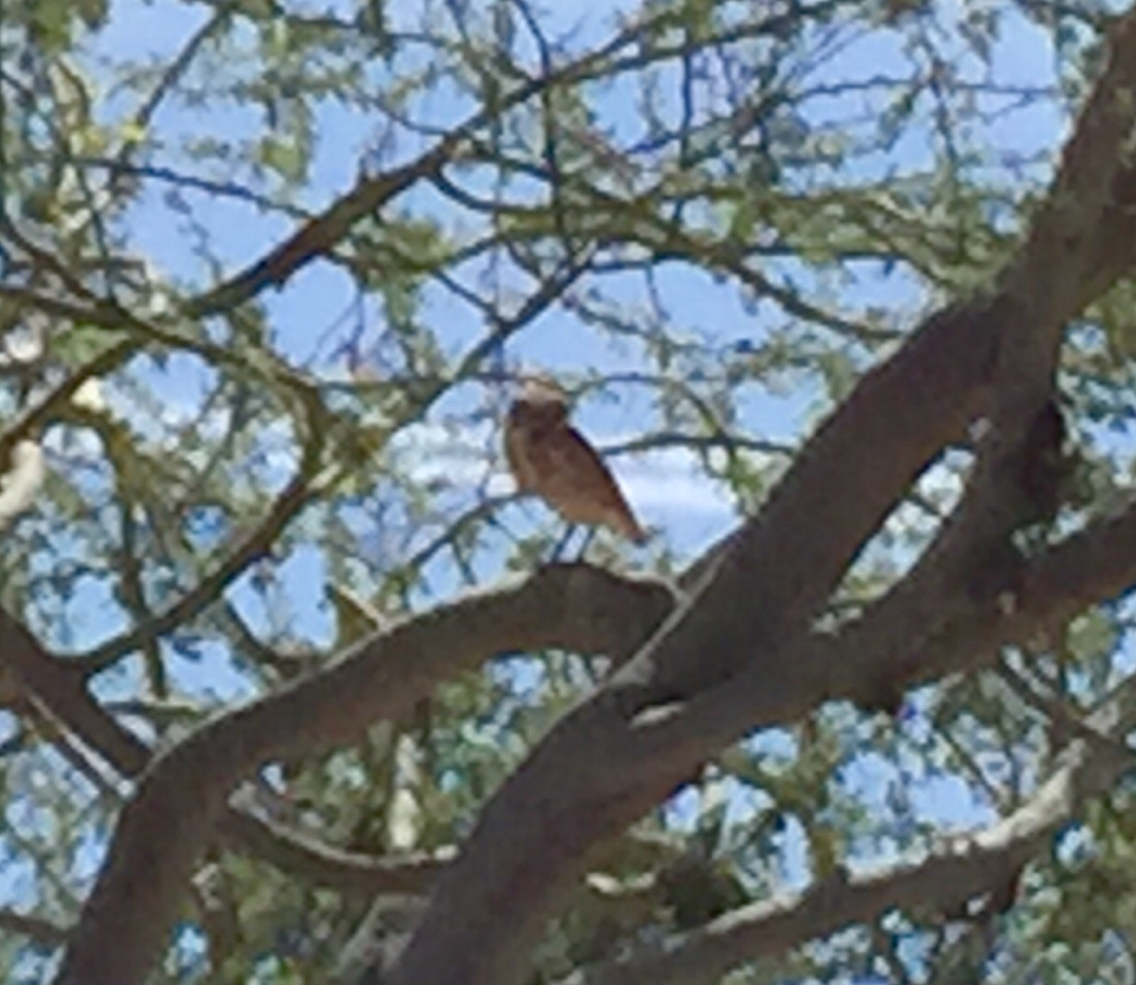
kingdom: Animalia
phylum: Chordata
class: Aves
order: Strigiformes
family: Strigidae
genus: Athene
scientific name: Athene cunicularia
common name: Burrowing owl
